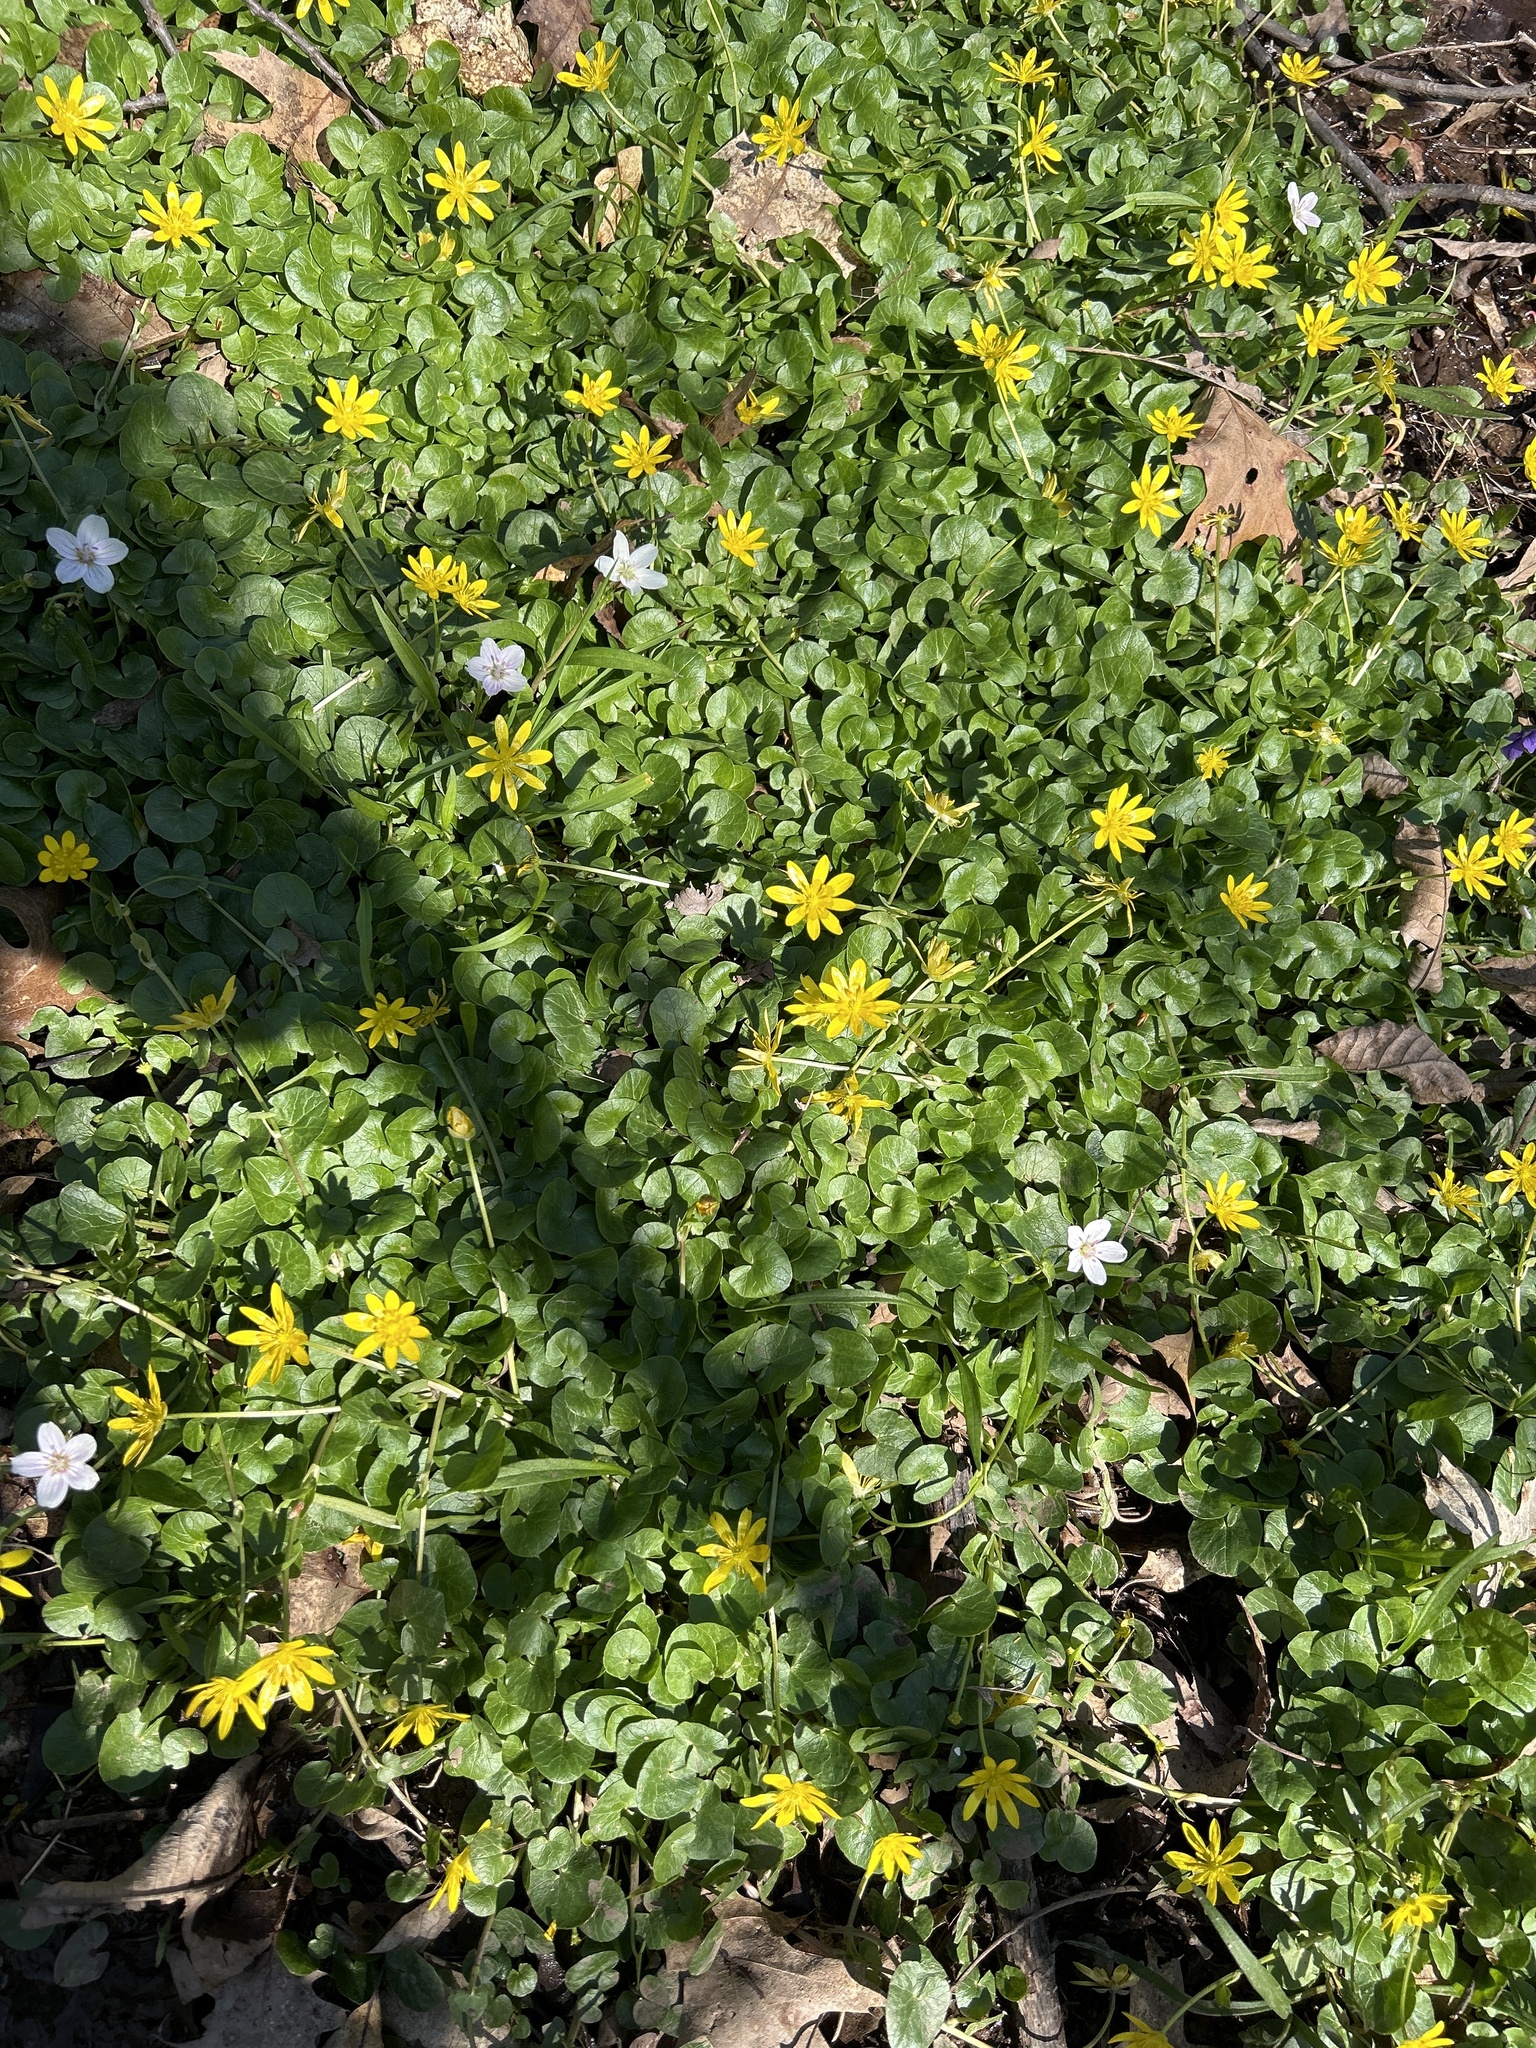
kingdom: Plantae
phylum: Tracheophyta
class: Magnoliopsida
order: Ranunculales
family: Ranunculaceae
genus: Ficaria
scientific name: Ficaria verna
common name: Lesser celandine
